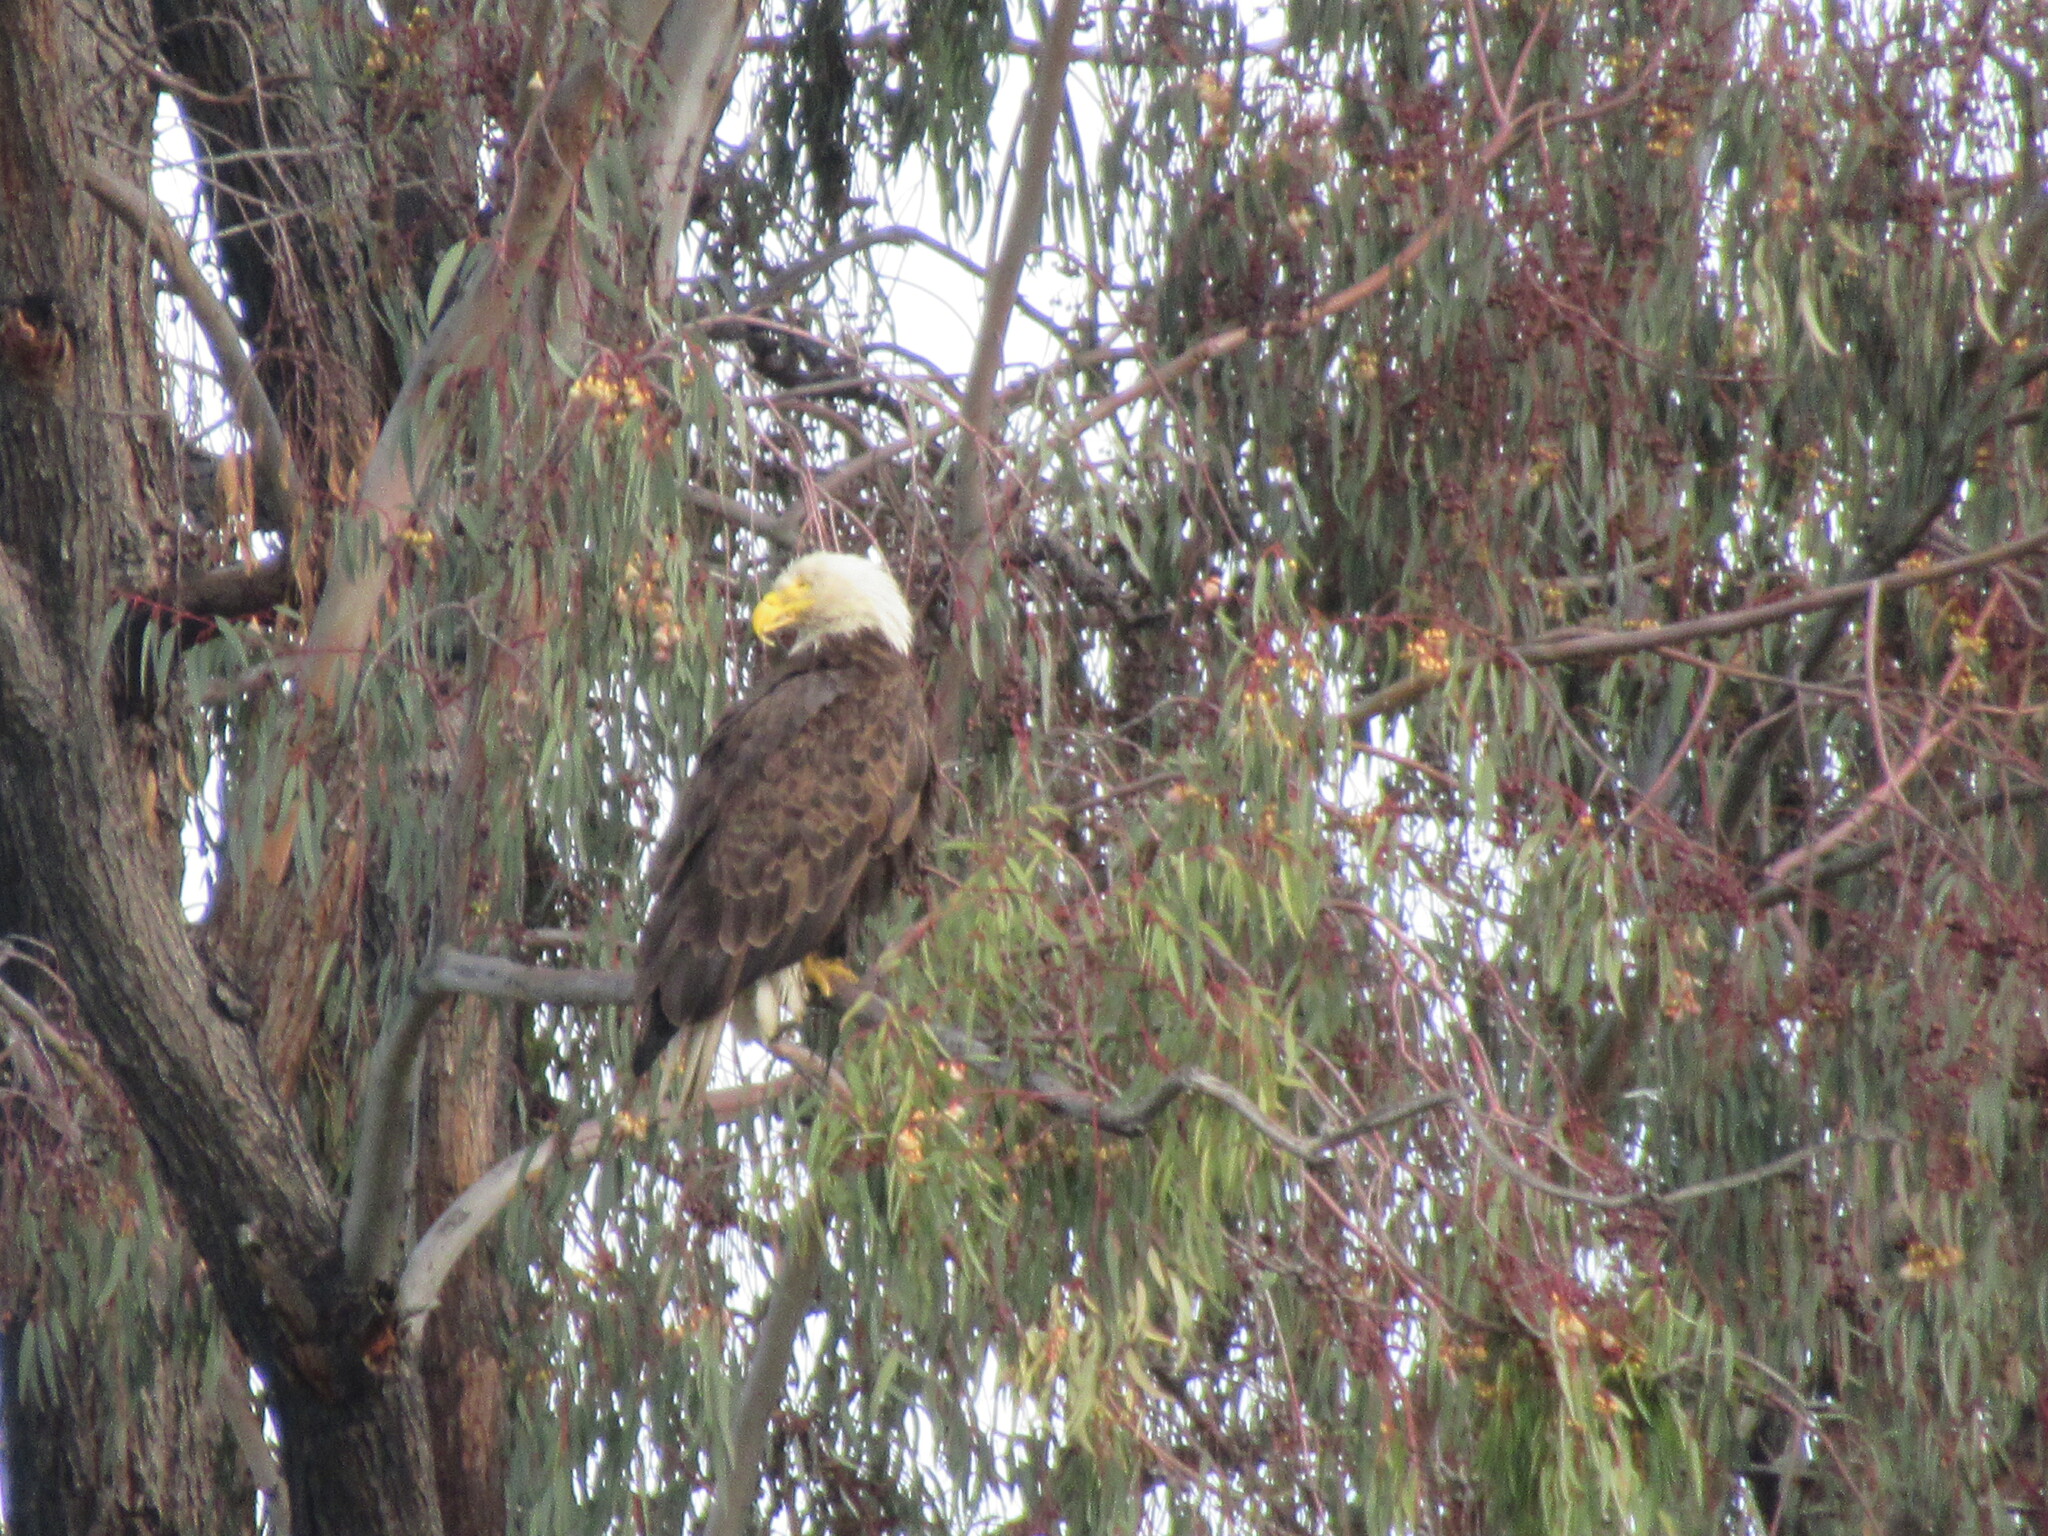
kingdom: Animalia
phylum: Chordata
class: Aves
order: Accipitriformes
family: Accipitridae
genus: Haliaeetus
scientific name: Haliaeetus leucocephalus
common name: Bald eagle
